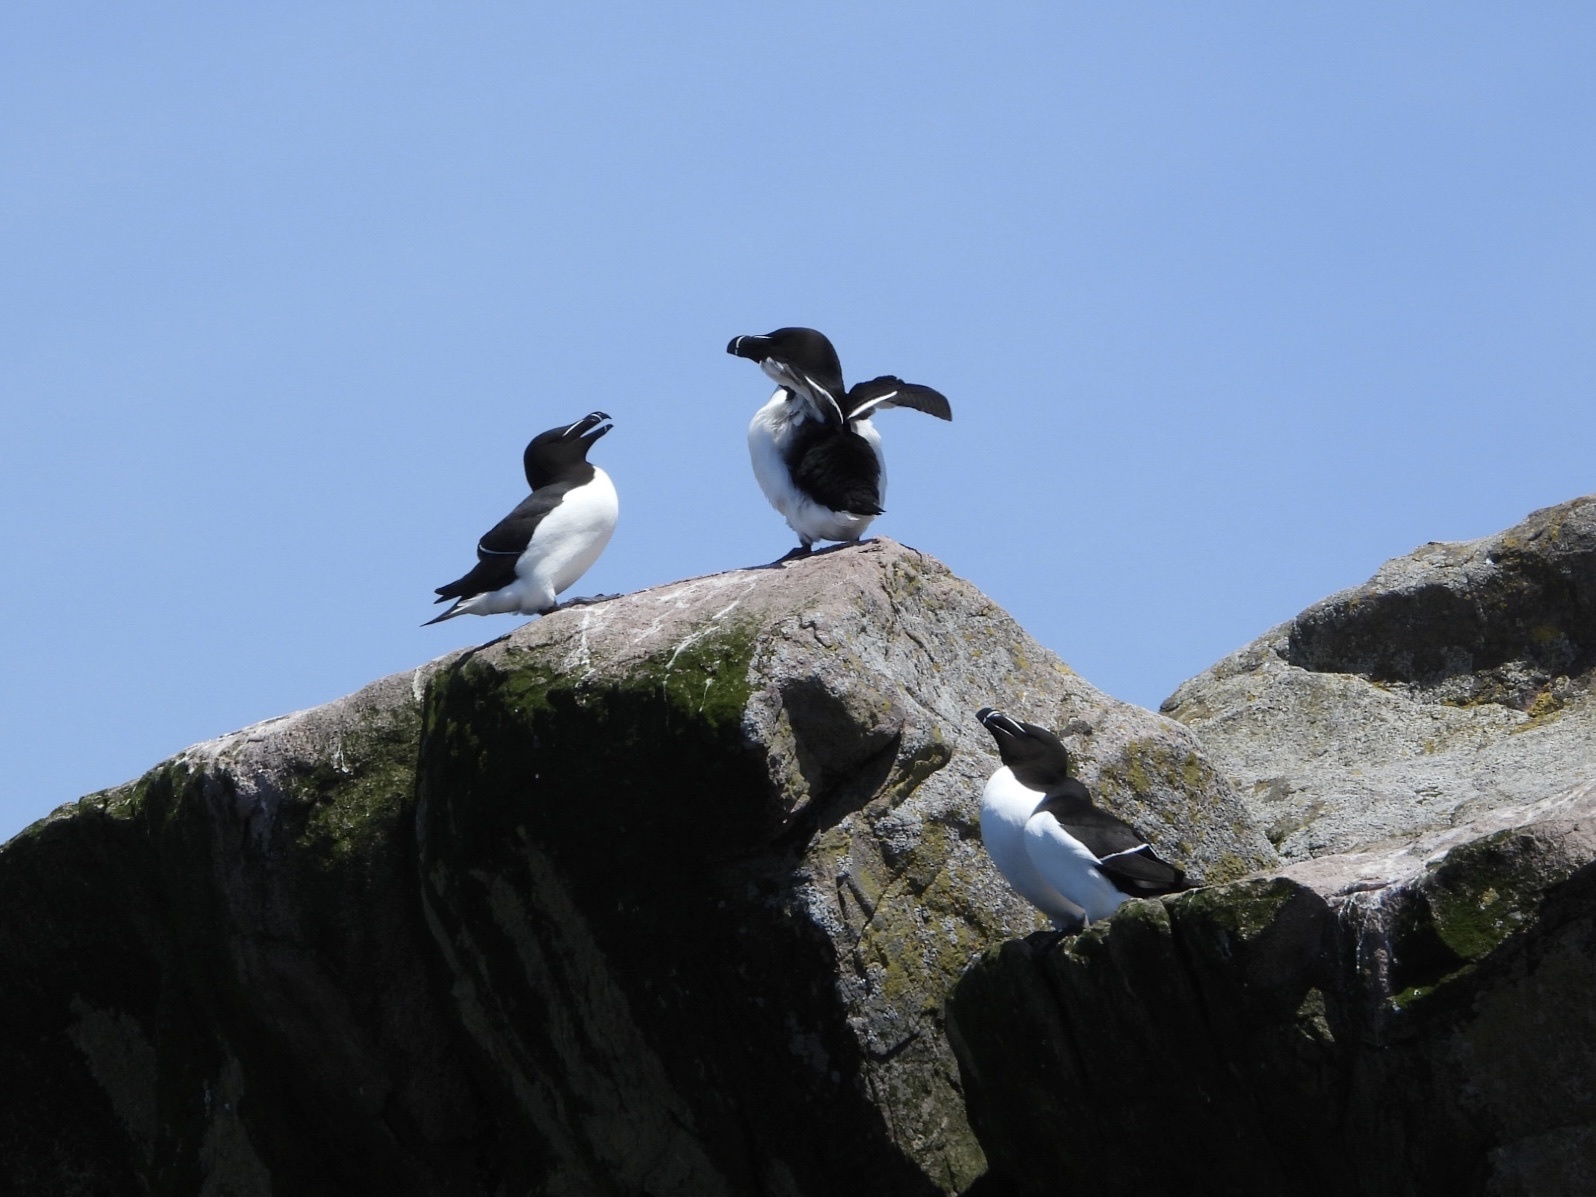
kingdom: Animalia
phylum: Chordata
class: Aves
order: Charadriiformes
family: Alcidae
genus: Alca
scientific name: Alca torda
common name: Razorbill
